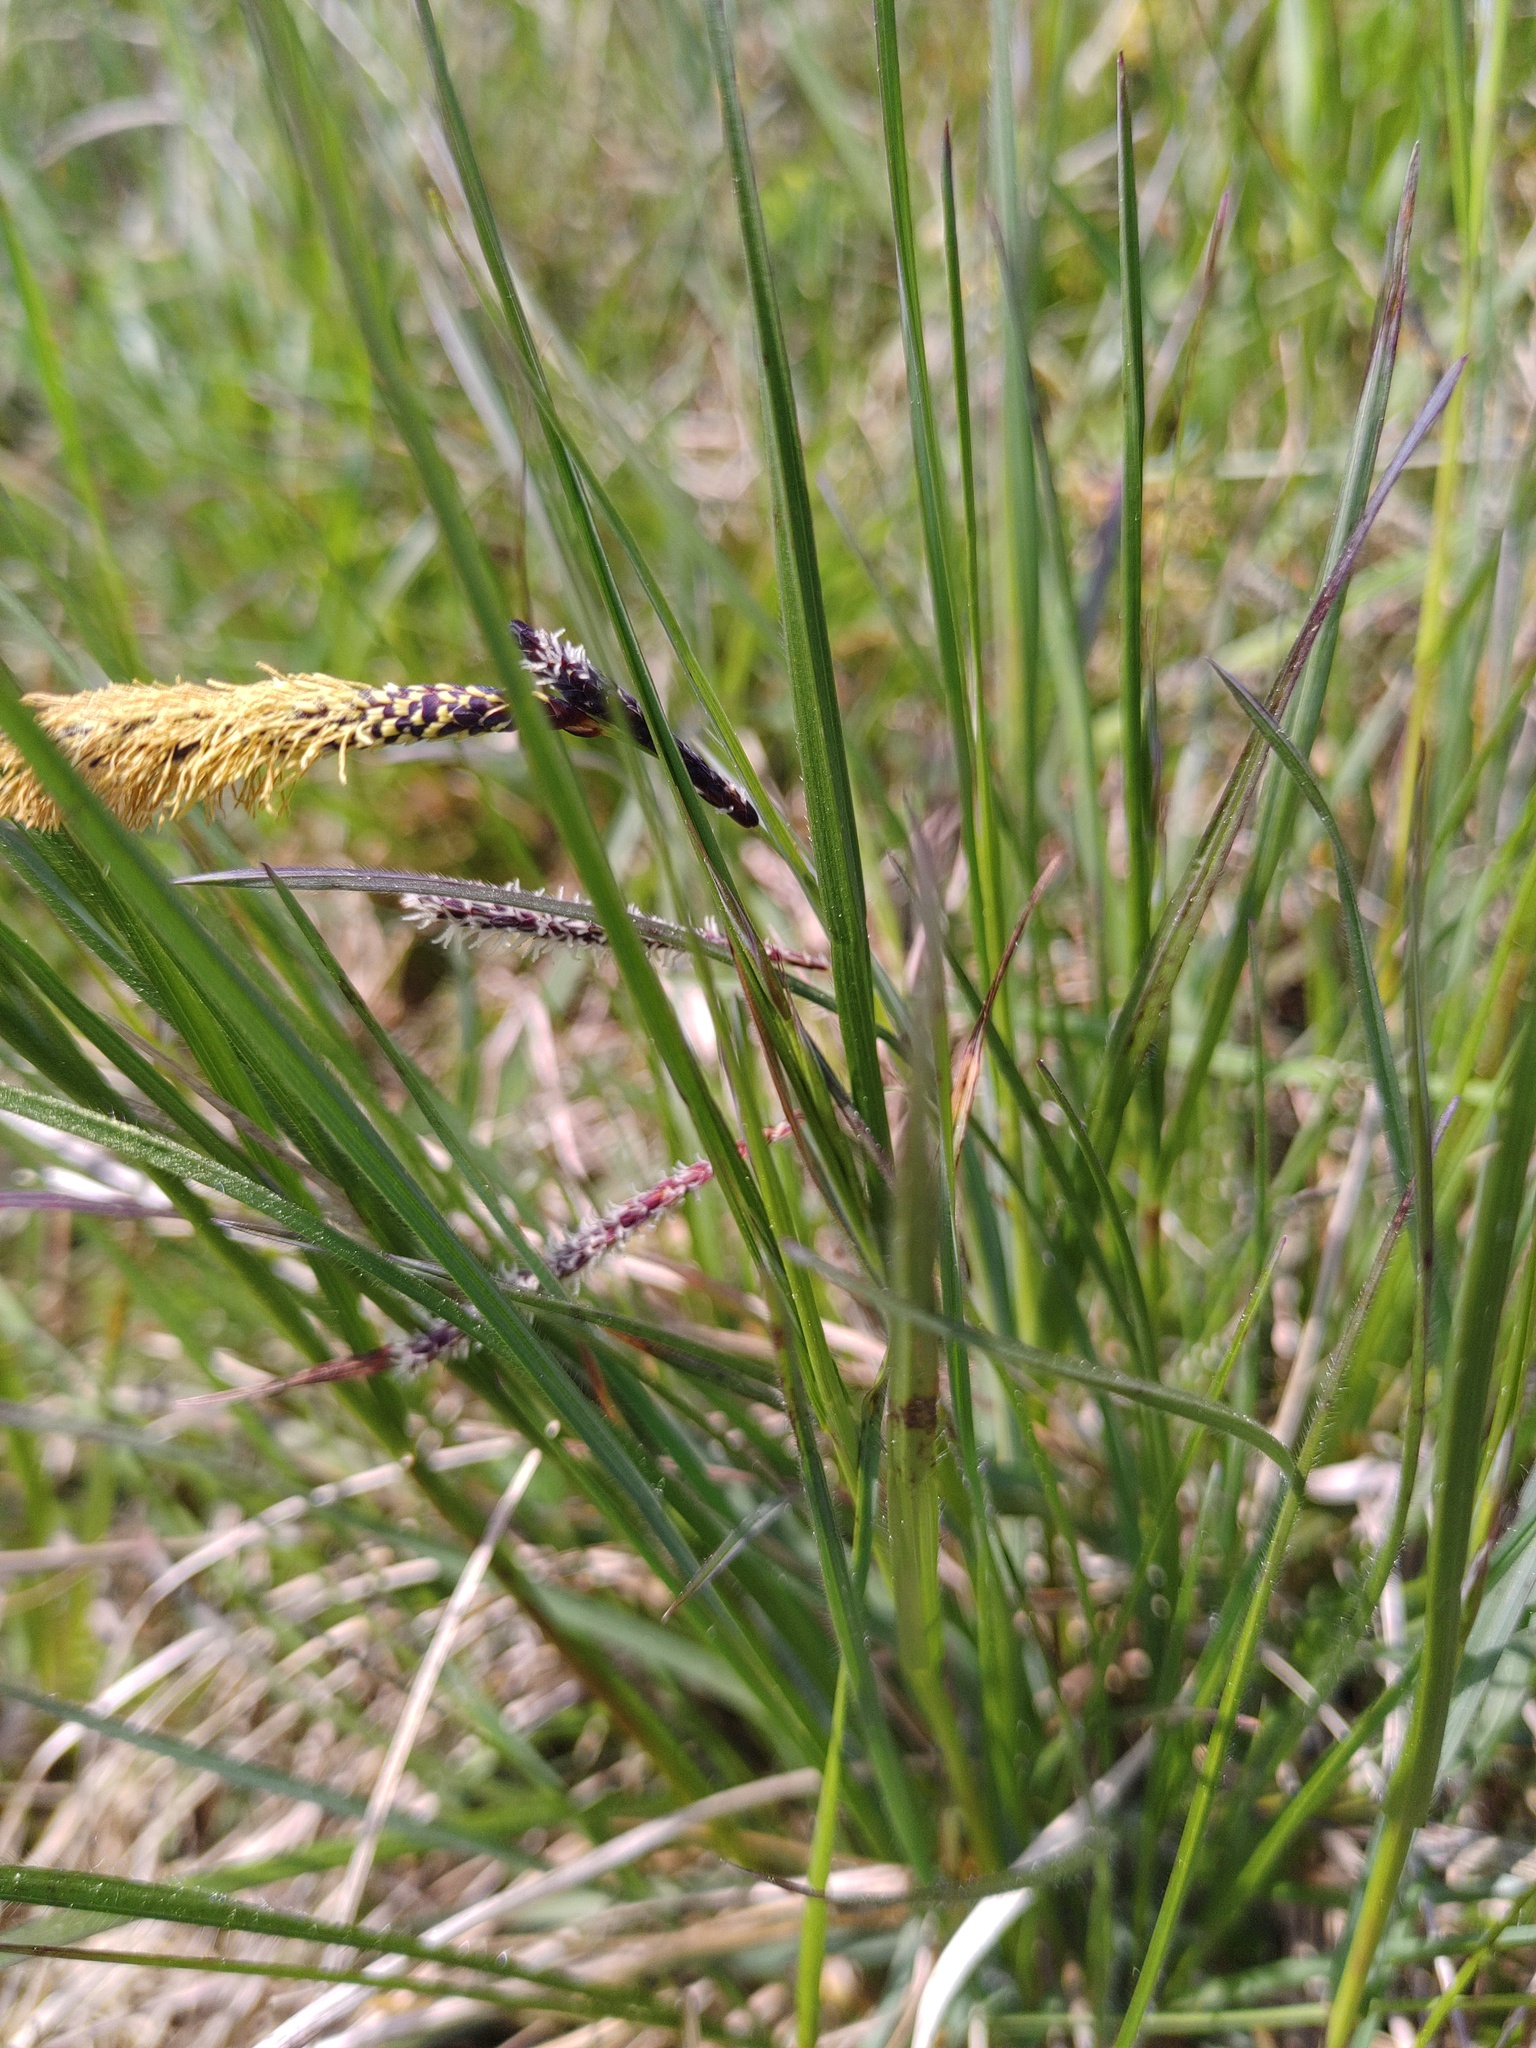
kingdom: Plantae
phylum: Tracheophyta
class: Liliopsida
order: Poales
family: Cyperaceae
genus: Carex
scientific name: Carex flacca
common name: Glaucous sedge
